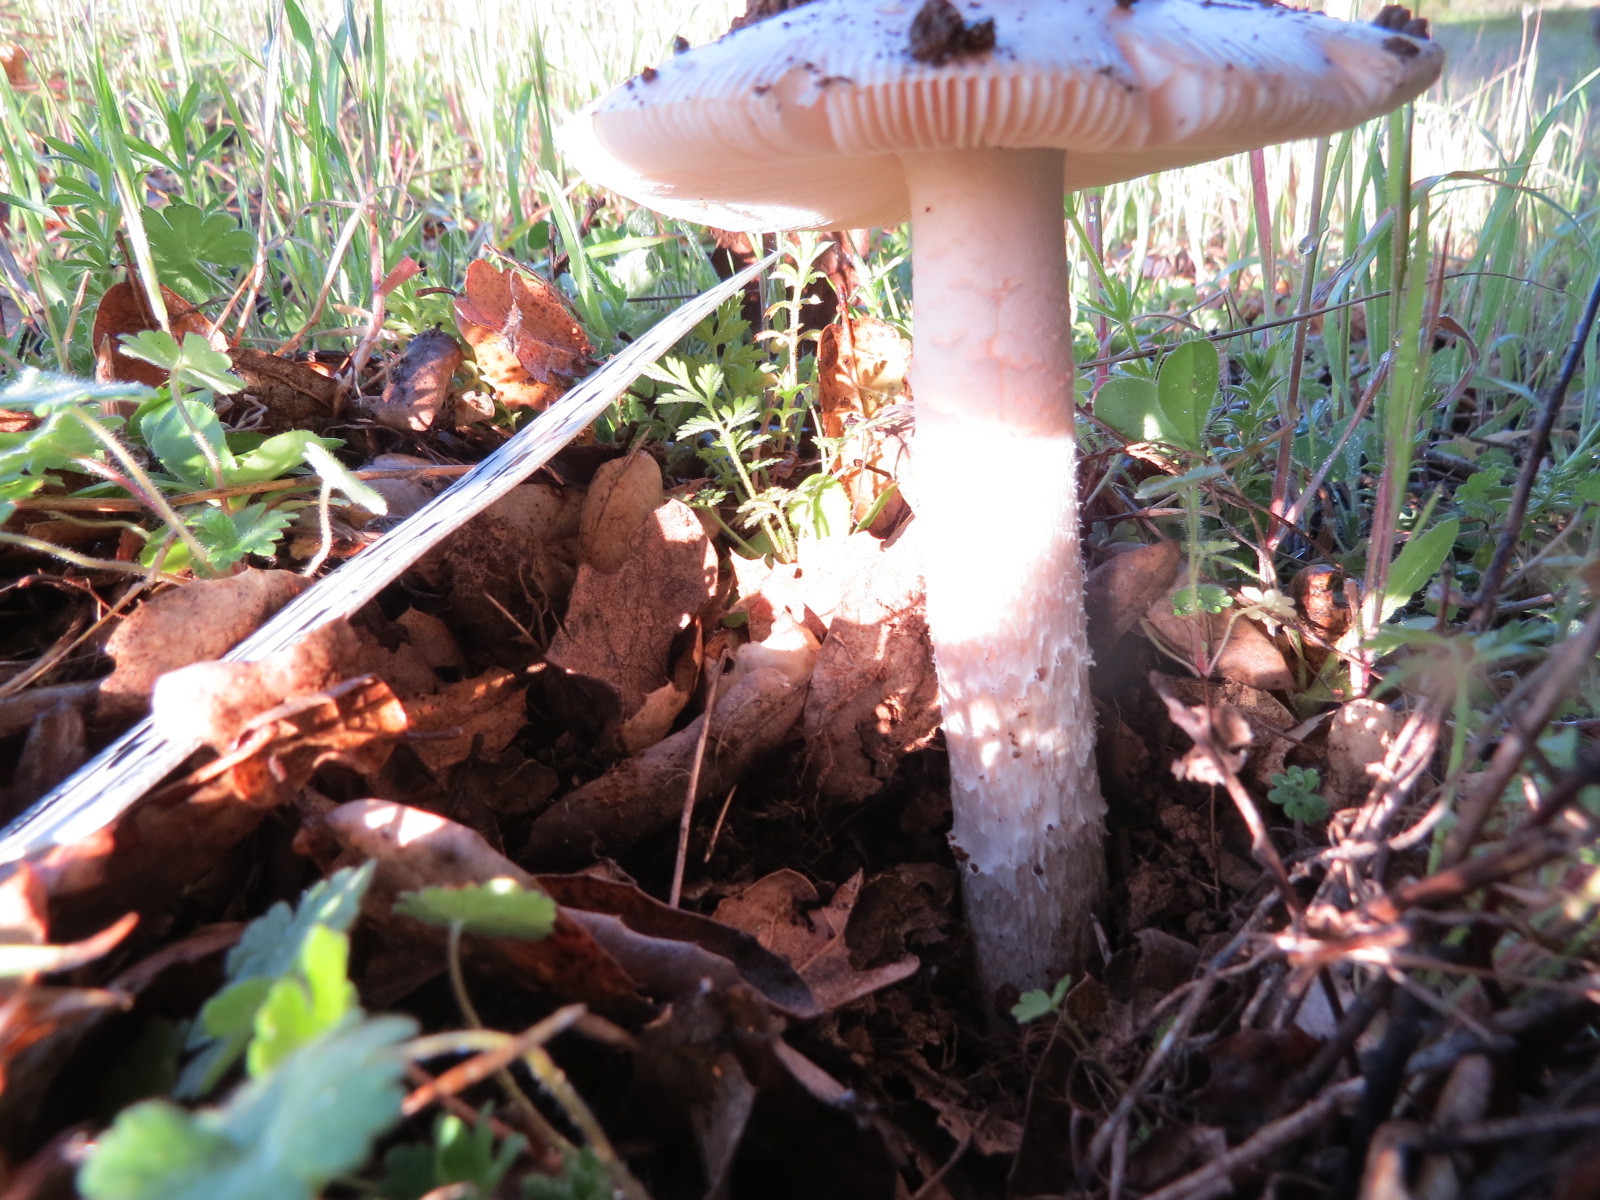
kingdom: Fungi
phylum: Basidiomycota
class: Agaricomycetes
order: Agaricales
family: Amanitaceae
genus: Amanita
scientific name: Amanita velosa
